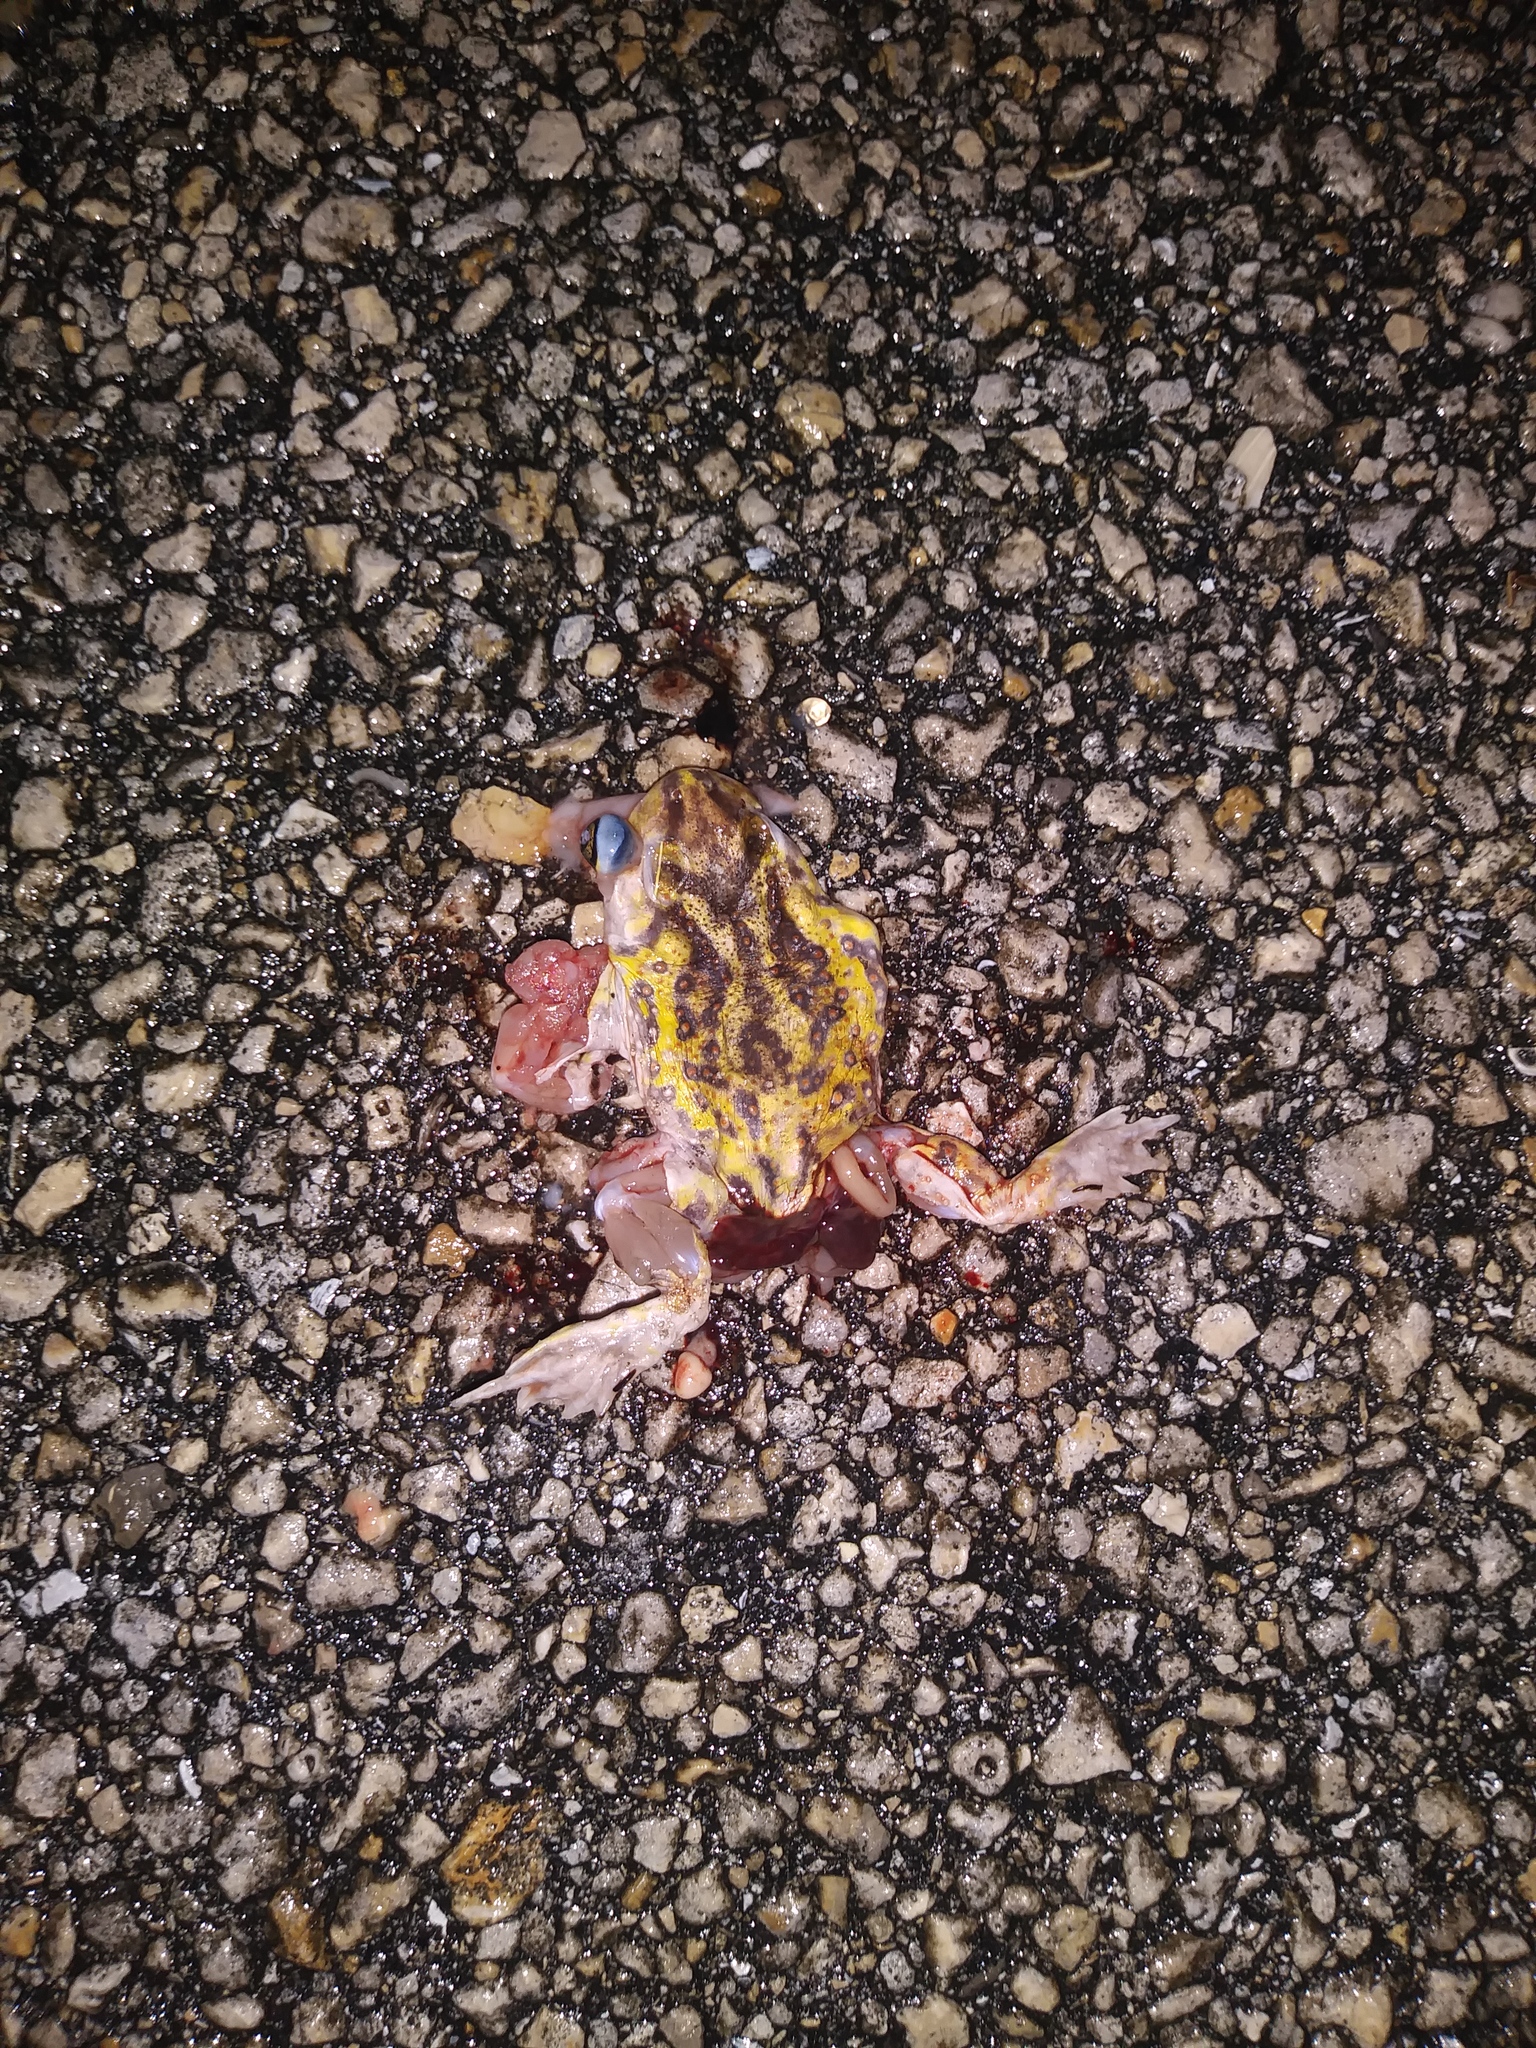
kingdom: Animalia
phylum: Chordata
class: Amphibia
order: Anura
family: Scaphiopodidae
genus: Scaphiopus
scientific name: Scaphiopus holbrookii
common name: Eastern spadefoot toad
